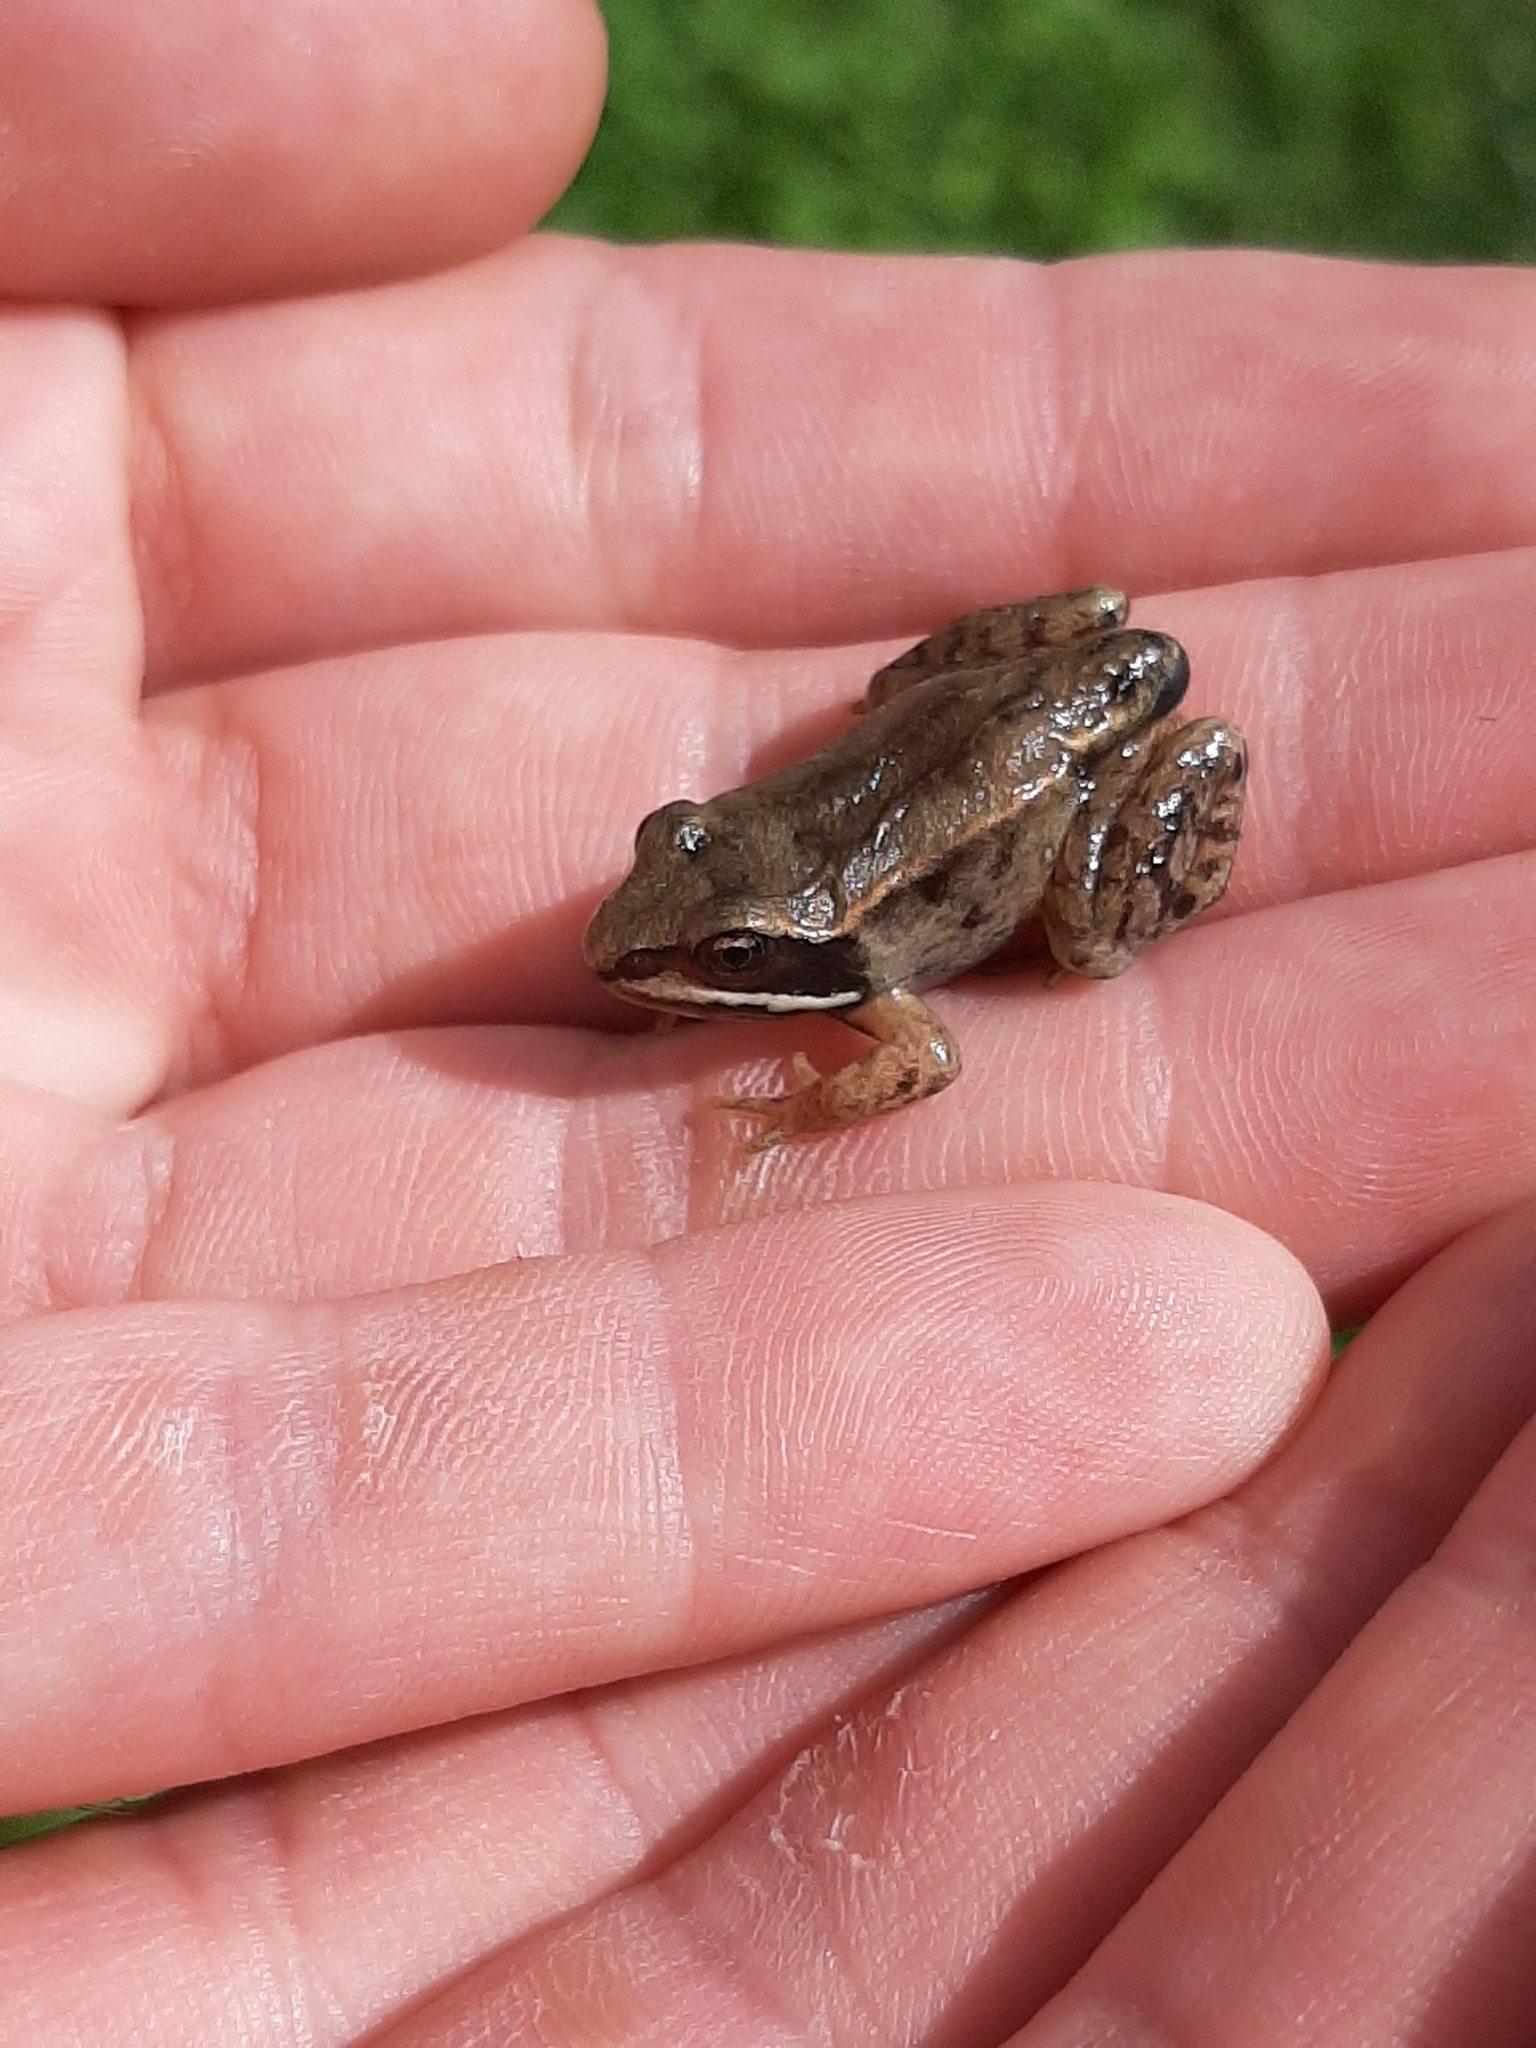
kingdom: Animalia
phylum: Chordata
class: Amphibia
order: Anura
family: Ranidae
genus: Lithobates
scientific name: Lithobates sylvaticus
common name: Wood frog
